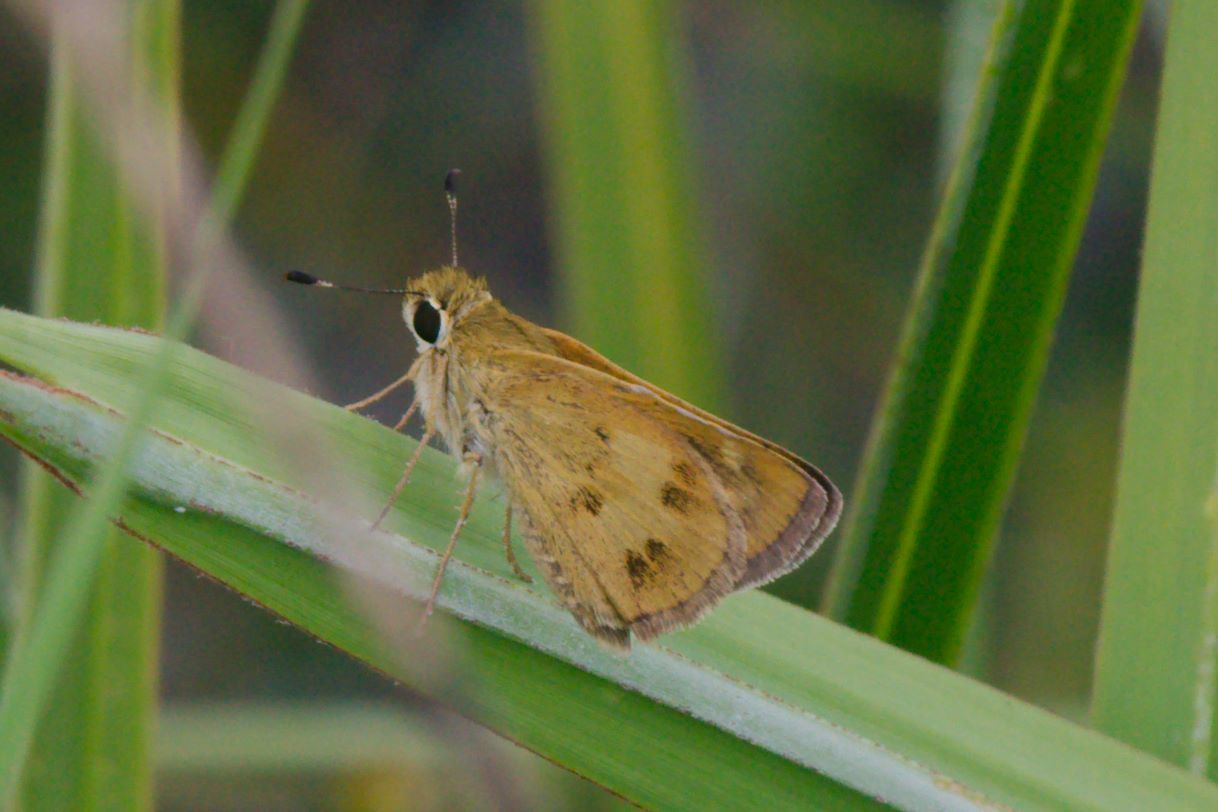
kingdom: Animalia
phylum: Arthropoda
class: Insecta
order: Lepidoptera
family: Hesperiidae
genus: Polites
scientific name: Polites vibex
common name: Whirlabout
